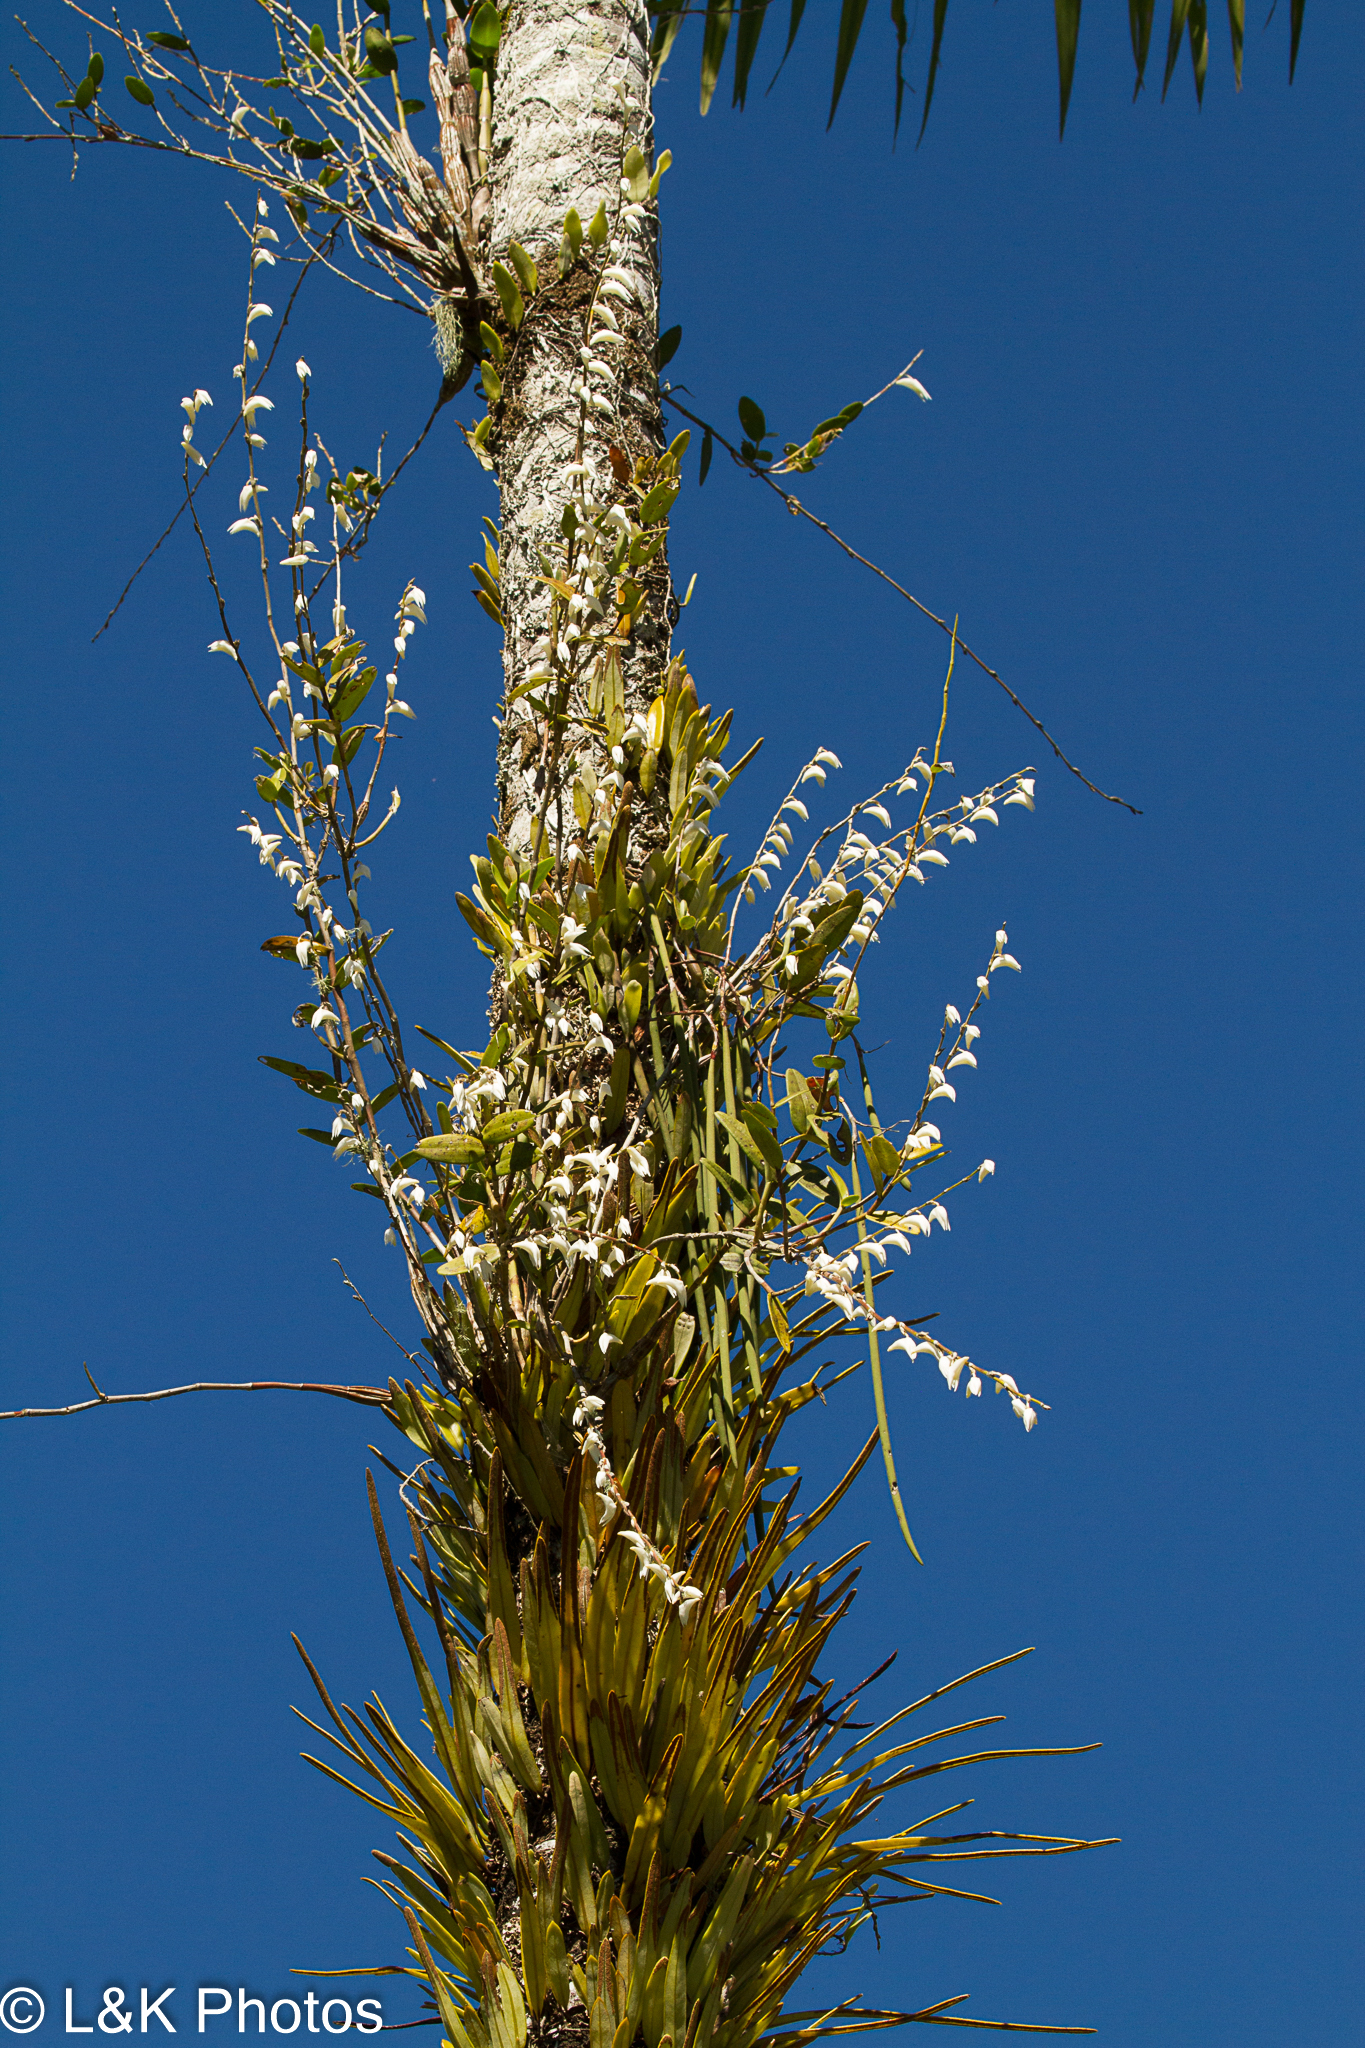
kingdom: Plantae
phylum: Tracheophyta
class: Liliopsida
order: Asparagales
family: Orchidaceae
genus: Dendrobium
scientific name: Dendrobium crumenatum
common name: Orchid
